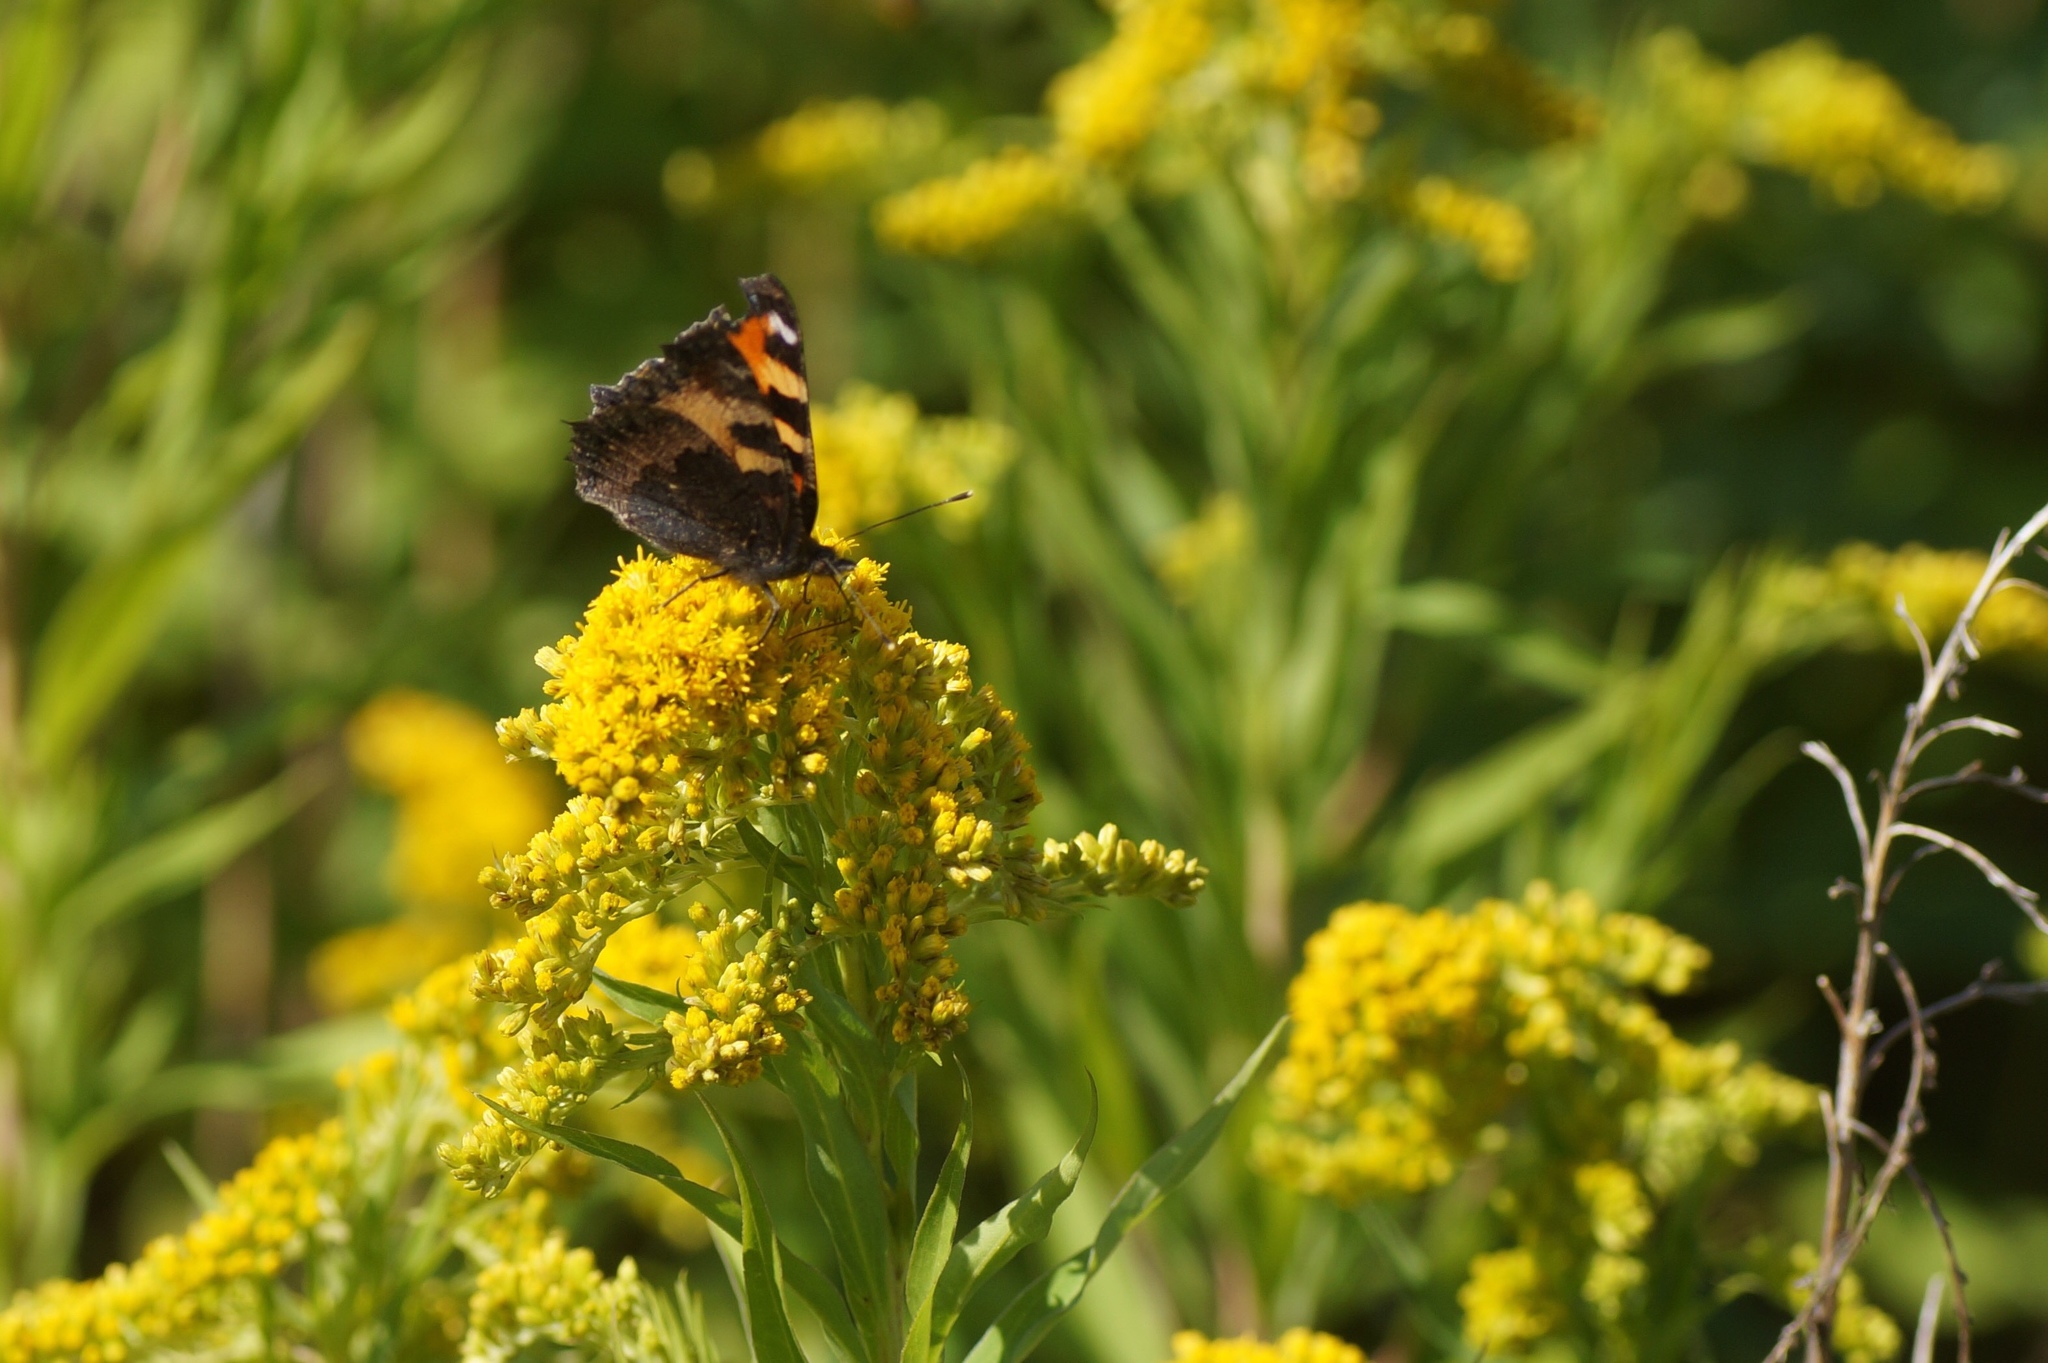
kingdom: Animalia
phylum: Arthropoda
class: Insecta
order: Lepidoptera
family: Nymphalidae
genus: Aglais
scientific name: Aglais urticae
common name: Small tortoiseshell
